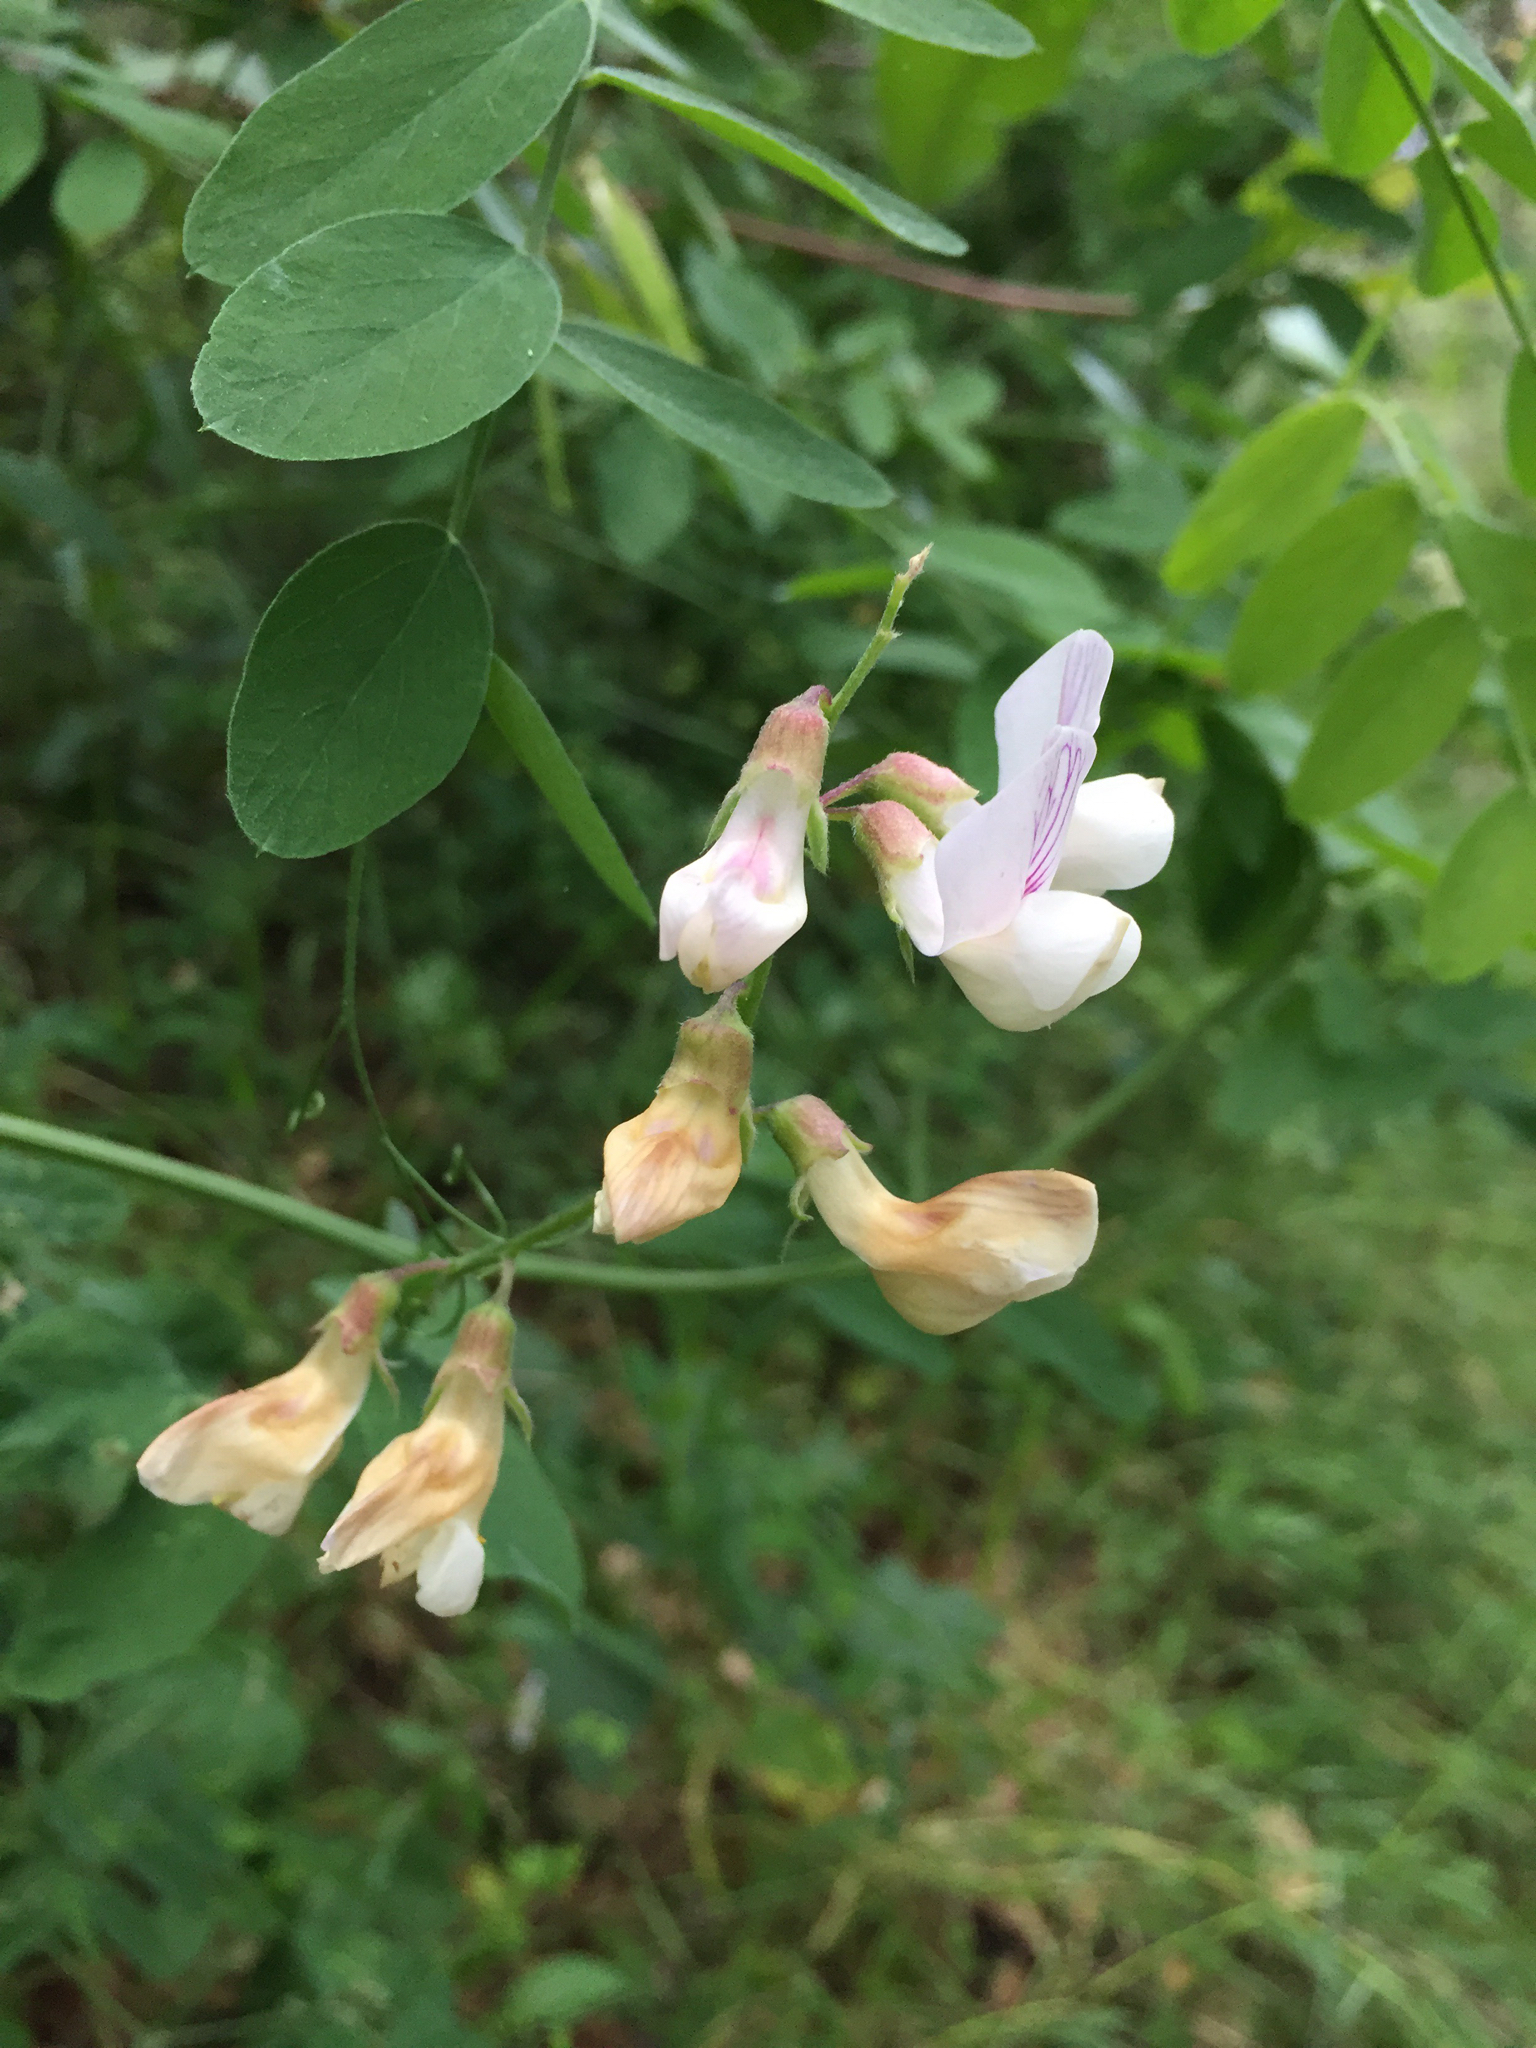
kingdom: Plantae
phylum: Tracheophyta
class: Magnoliopsida
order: Fabales
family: Fabaceae
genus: Lathyrus
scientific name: Lathyrus vestitus
